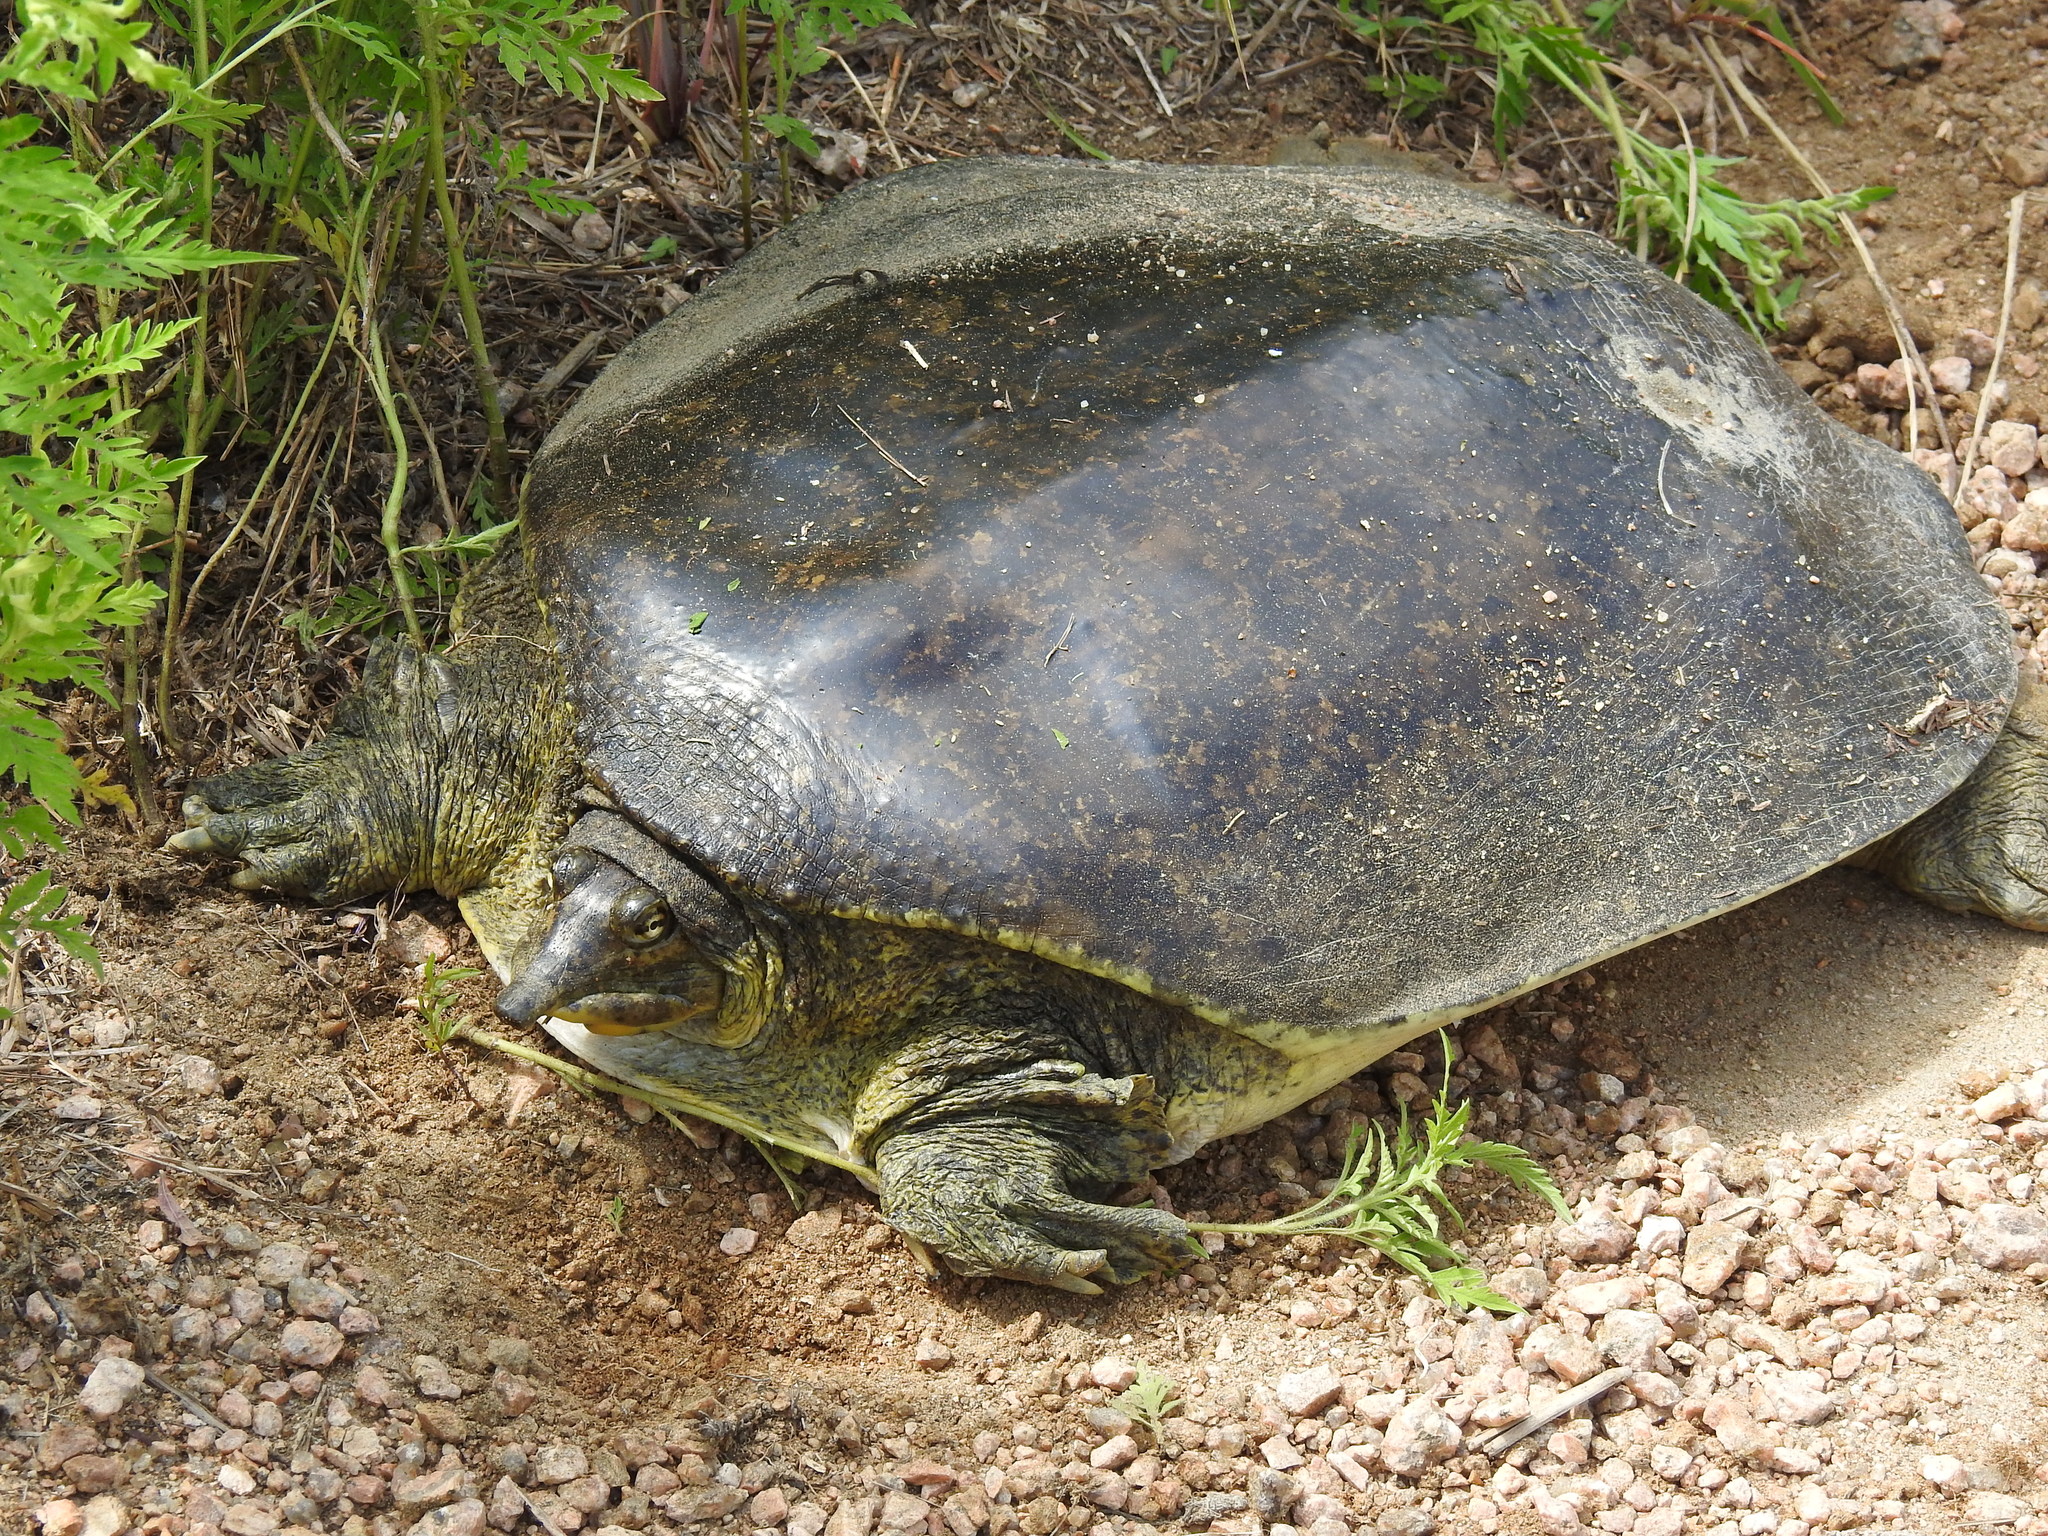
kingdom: Animalia
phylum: Chordata
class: Testudines
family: Trionychidae
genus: Apalone
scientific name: Apalone spinifera
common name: Spiny softshell turtle
